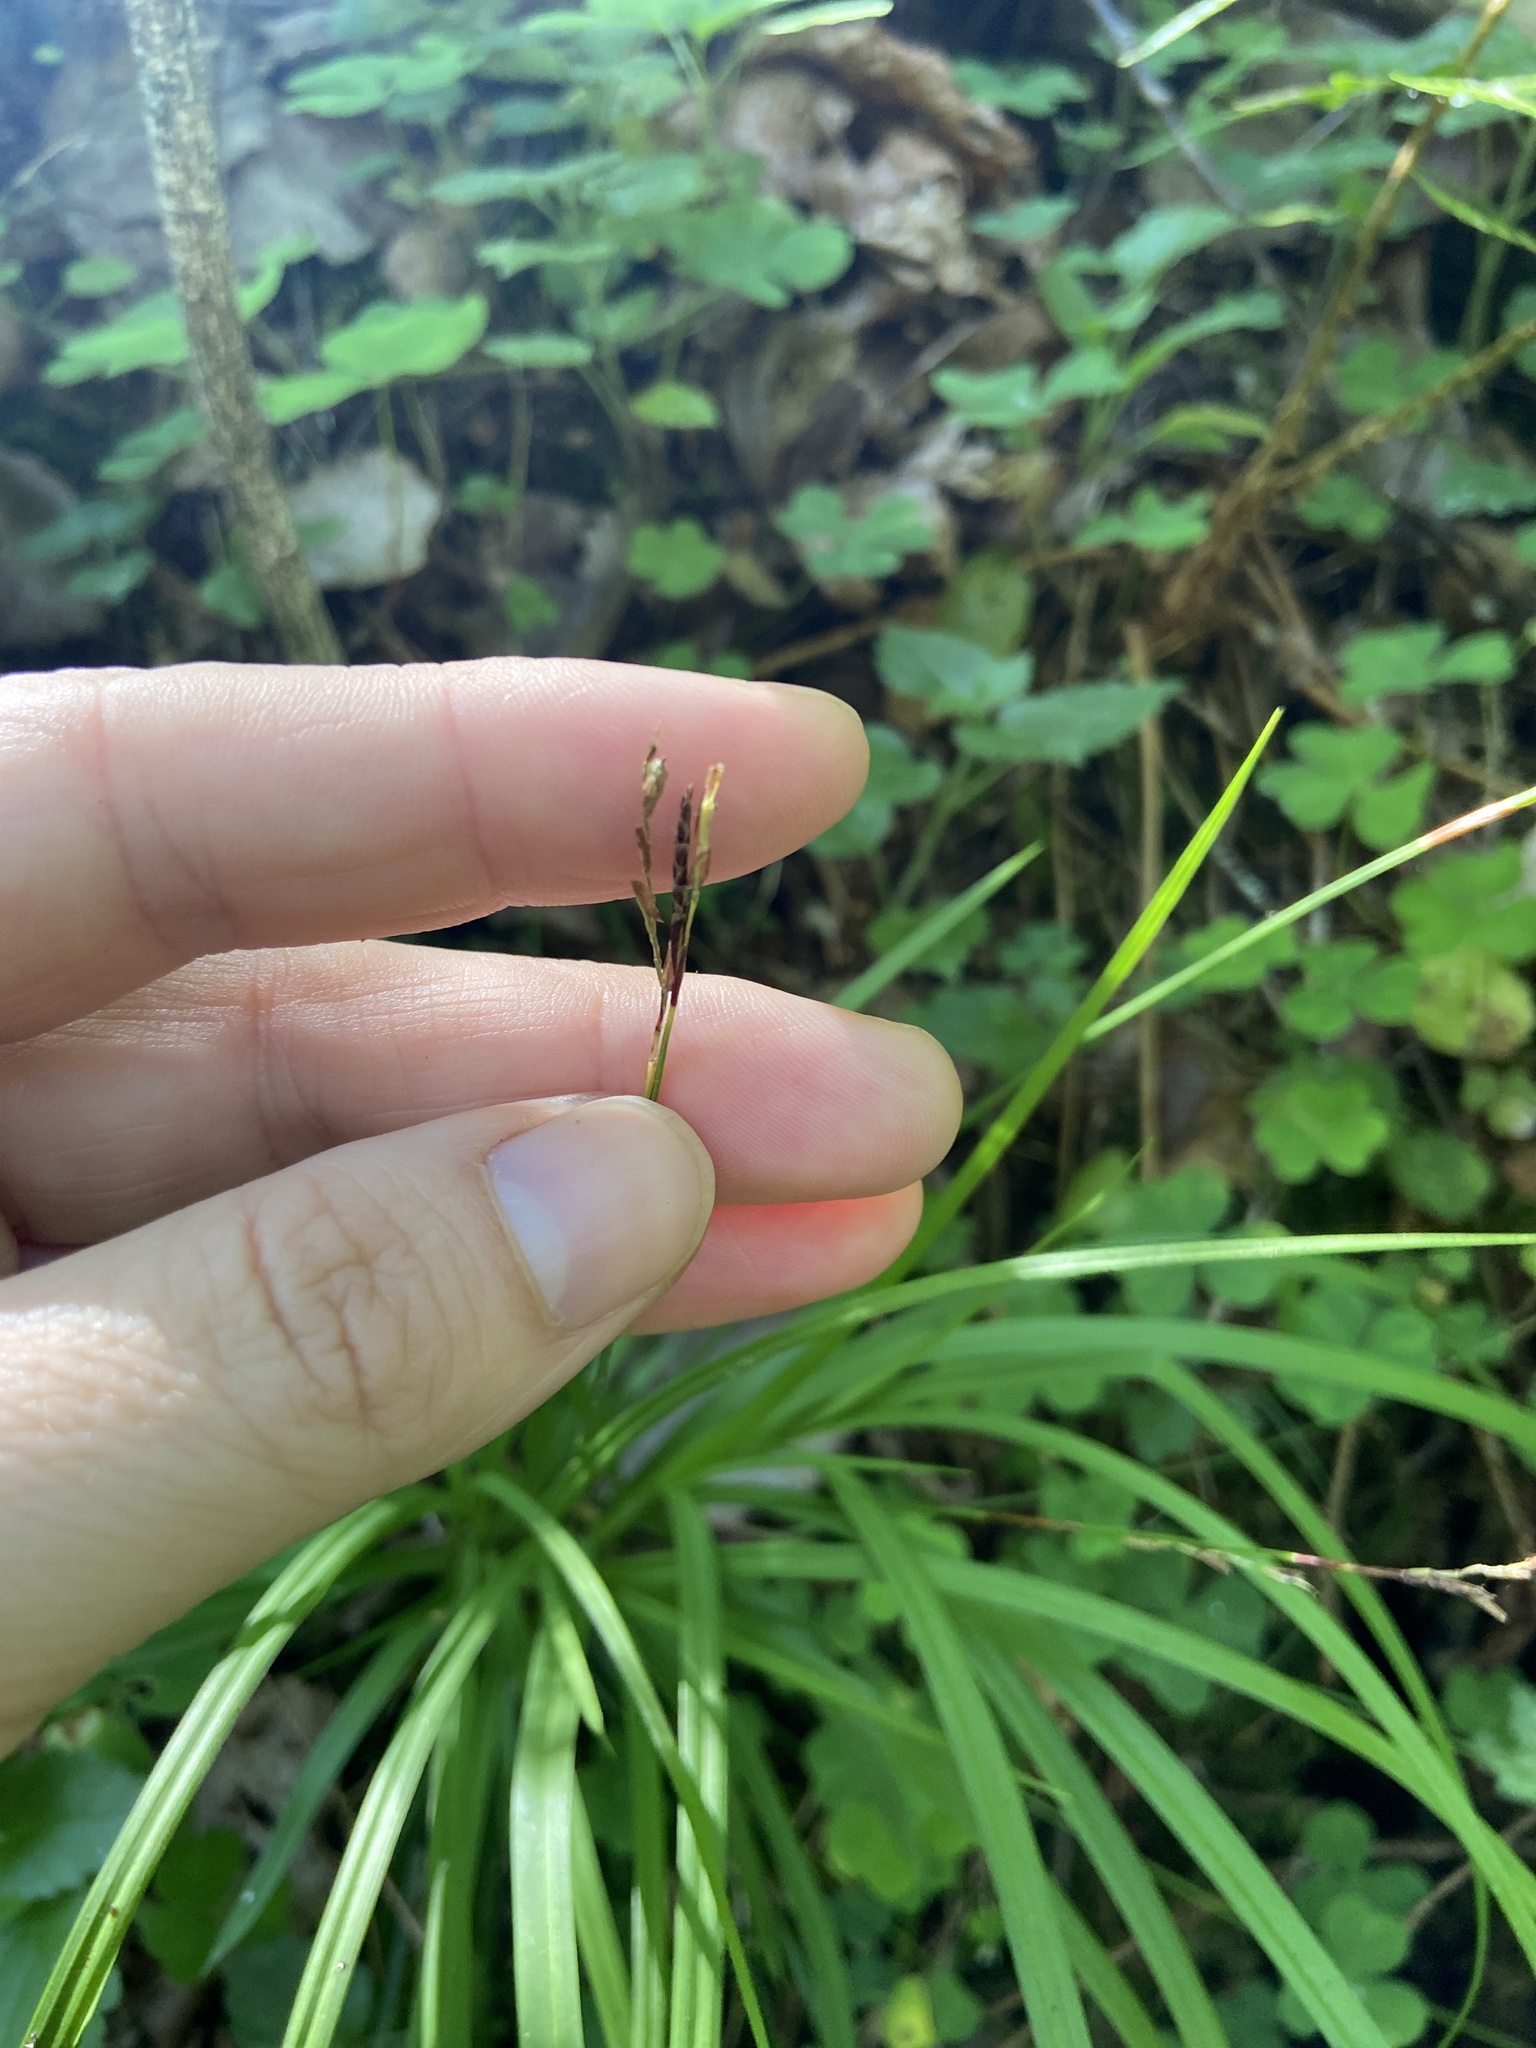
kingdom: Plantae
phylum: Tracheophyta
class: Liliopsida
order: Poales
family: Cyperaceae
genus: Carex
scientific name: Carex digitata
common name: Fingered sedge
